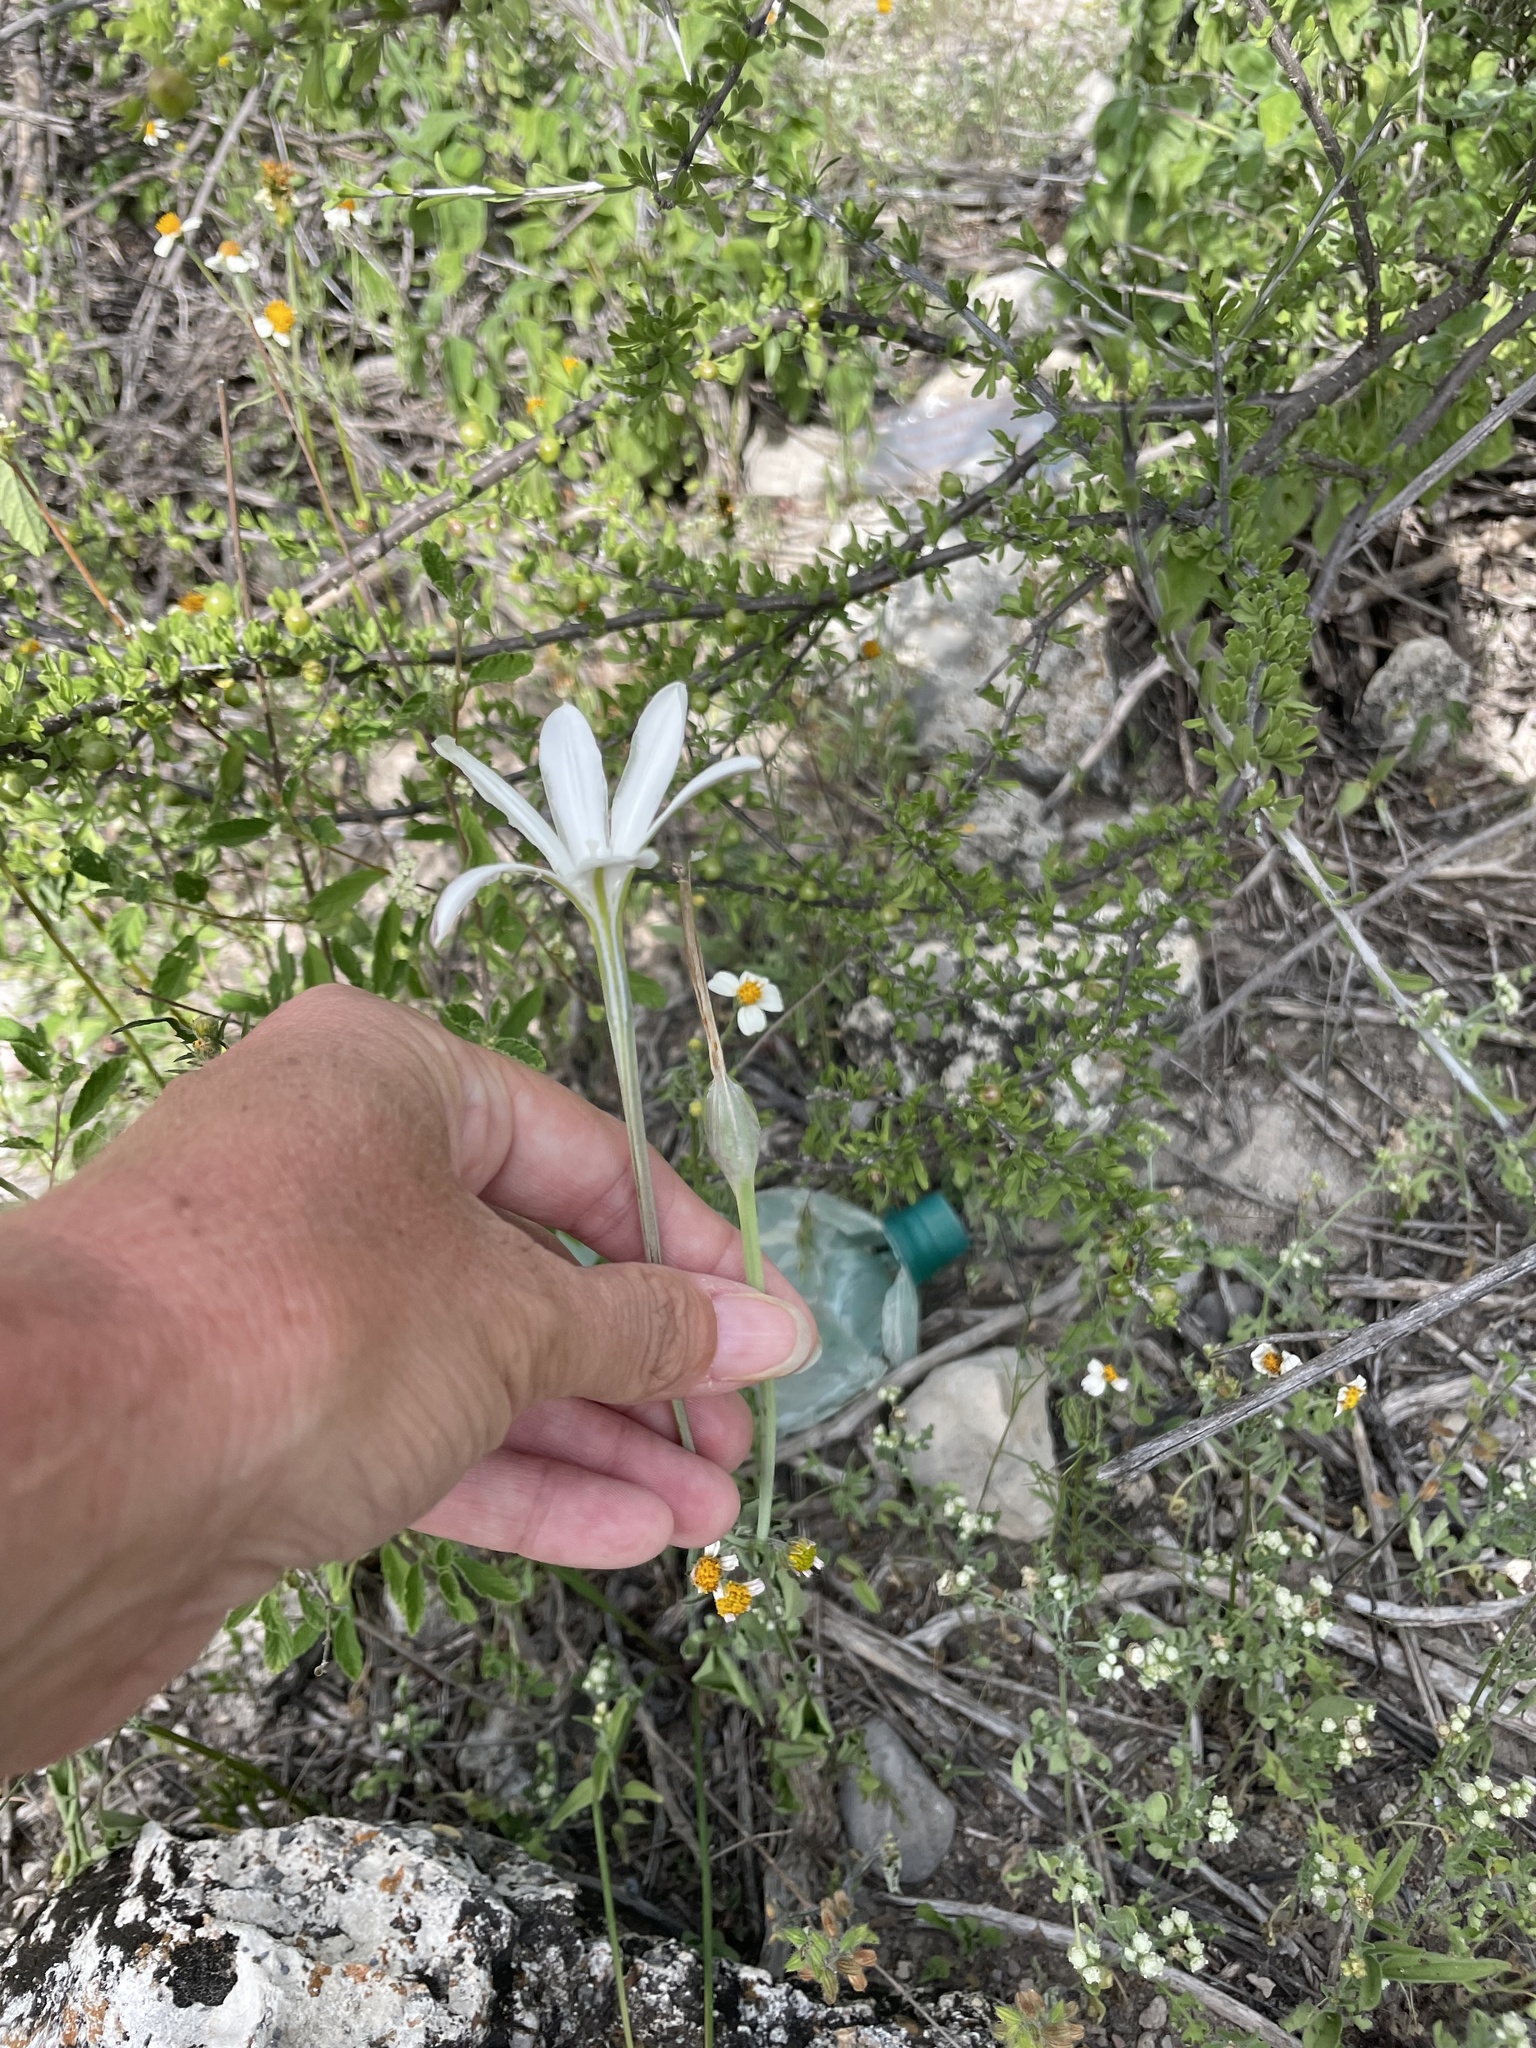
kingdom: Plantae
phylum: Tracheophyta
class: Liliopsida
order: Asparagales
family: Asparagaceae
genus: Milla
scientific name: Milla biflora
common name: Mexican-star
